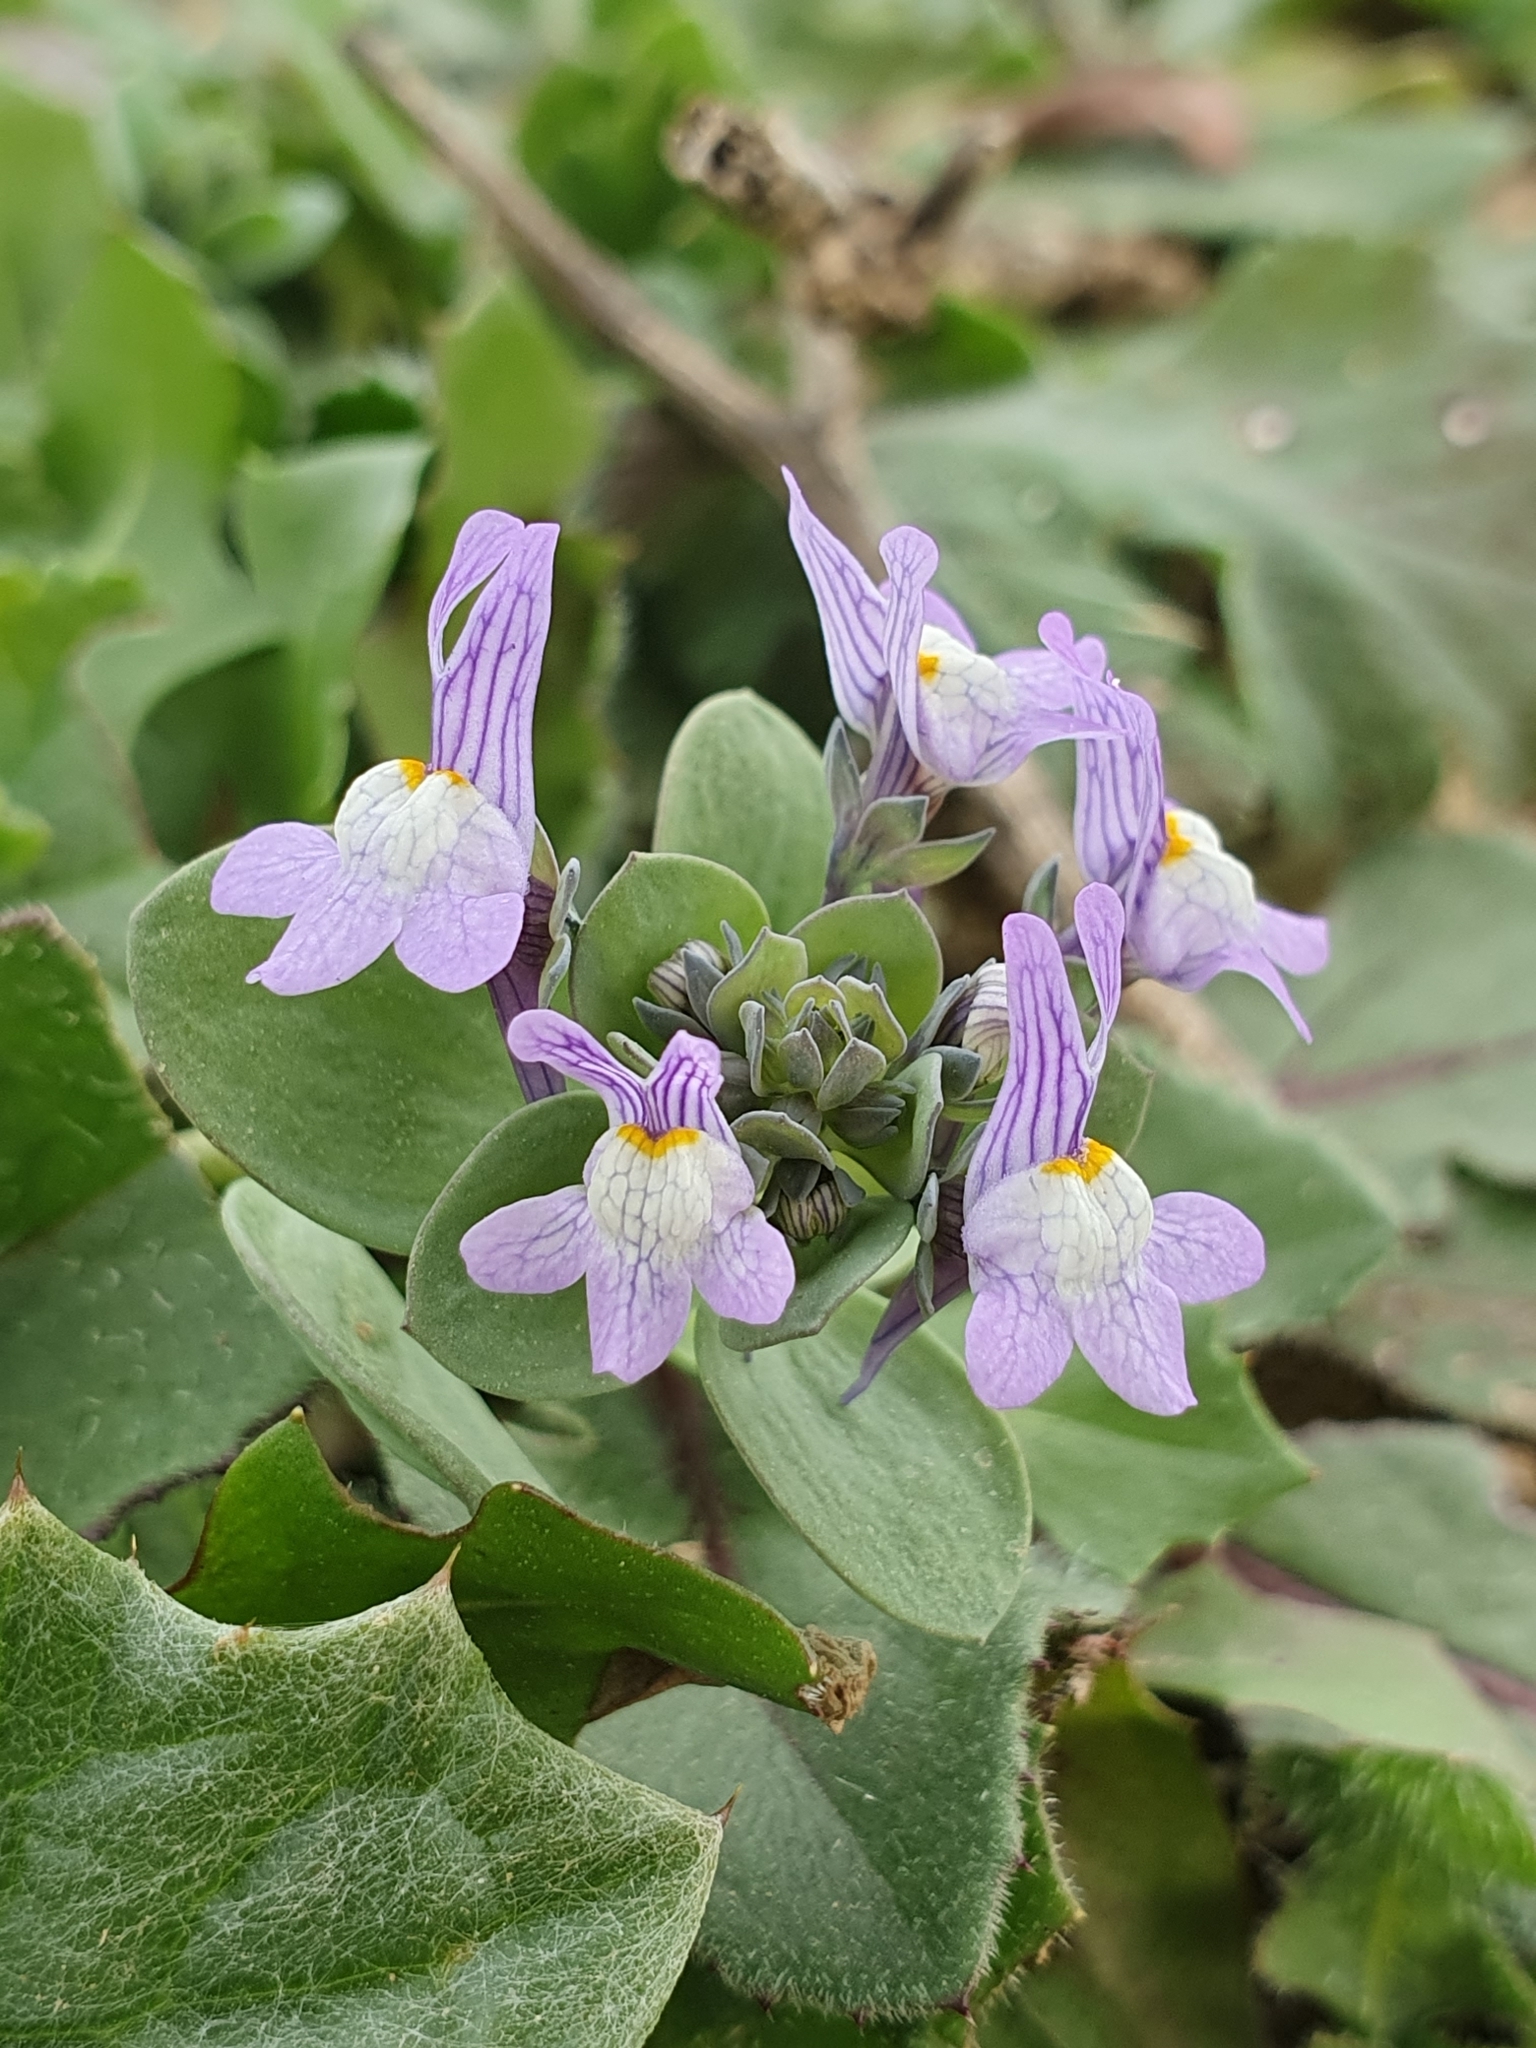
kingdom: Plantae
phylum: Tracheophyta
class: Magnoliopsida
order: Lamiales
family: Plantaginaceae
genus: Linaria
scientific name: Linaria reflexa
